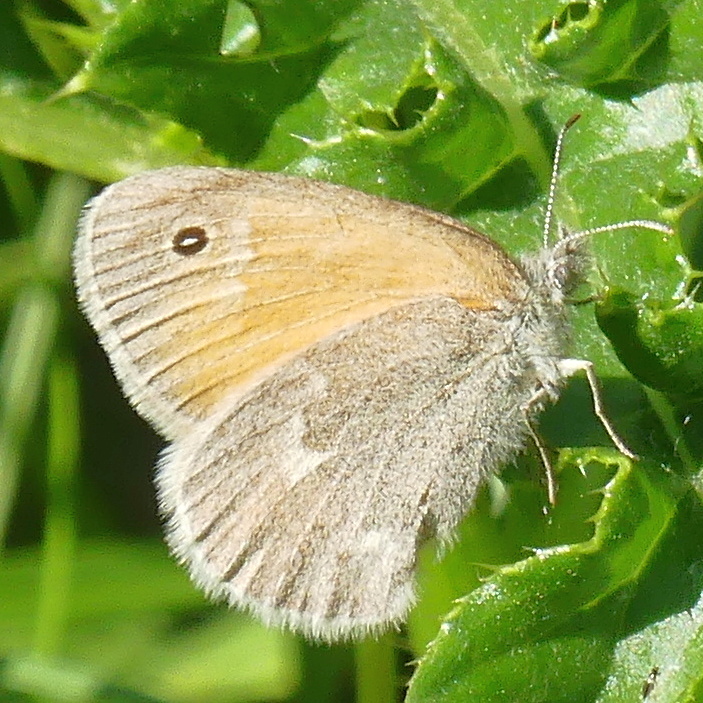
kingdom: Animalia
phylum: Arthropoda
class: Insecta
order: Lepidoptera
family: Nymphalidae
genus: Coenonympha
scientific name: Coenonympha california
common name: Common ringlet
